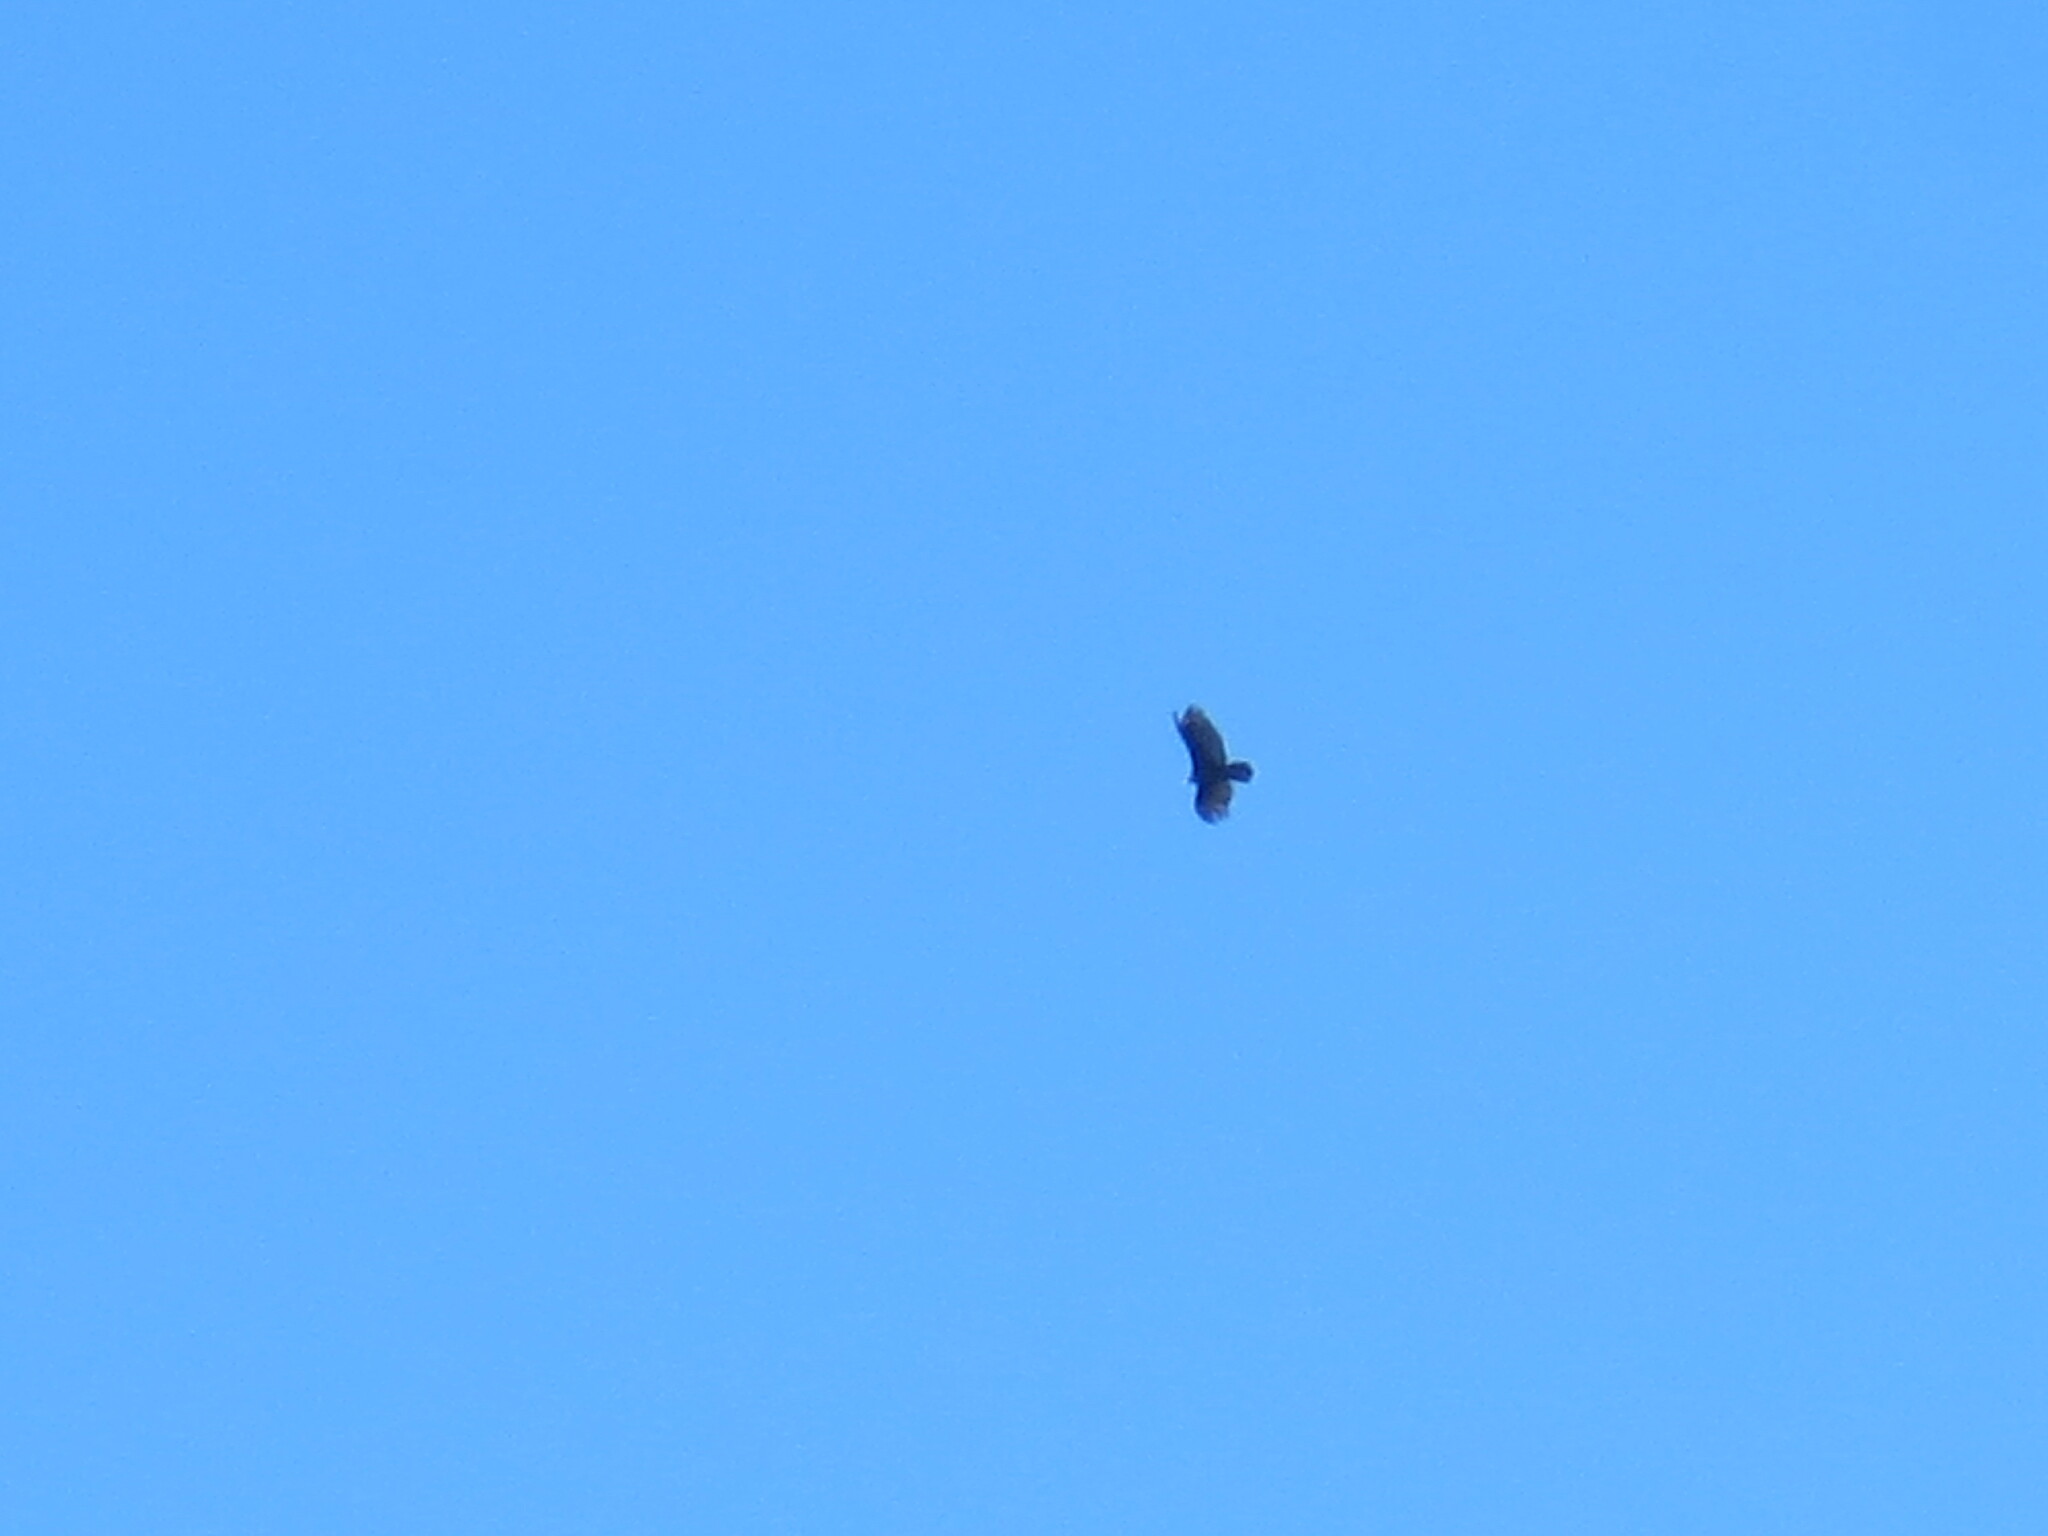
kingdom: Animalia
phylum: Chordata
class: Aves
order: Accipitriformes
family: Cathartidae
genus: Cathartes
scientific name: Cathartes aura
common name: Turkey vulture
